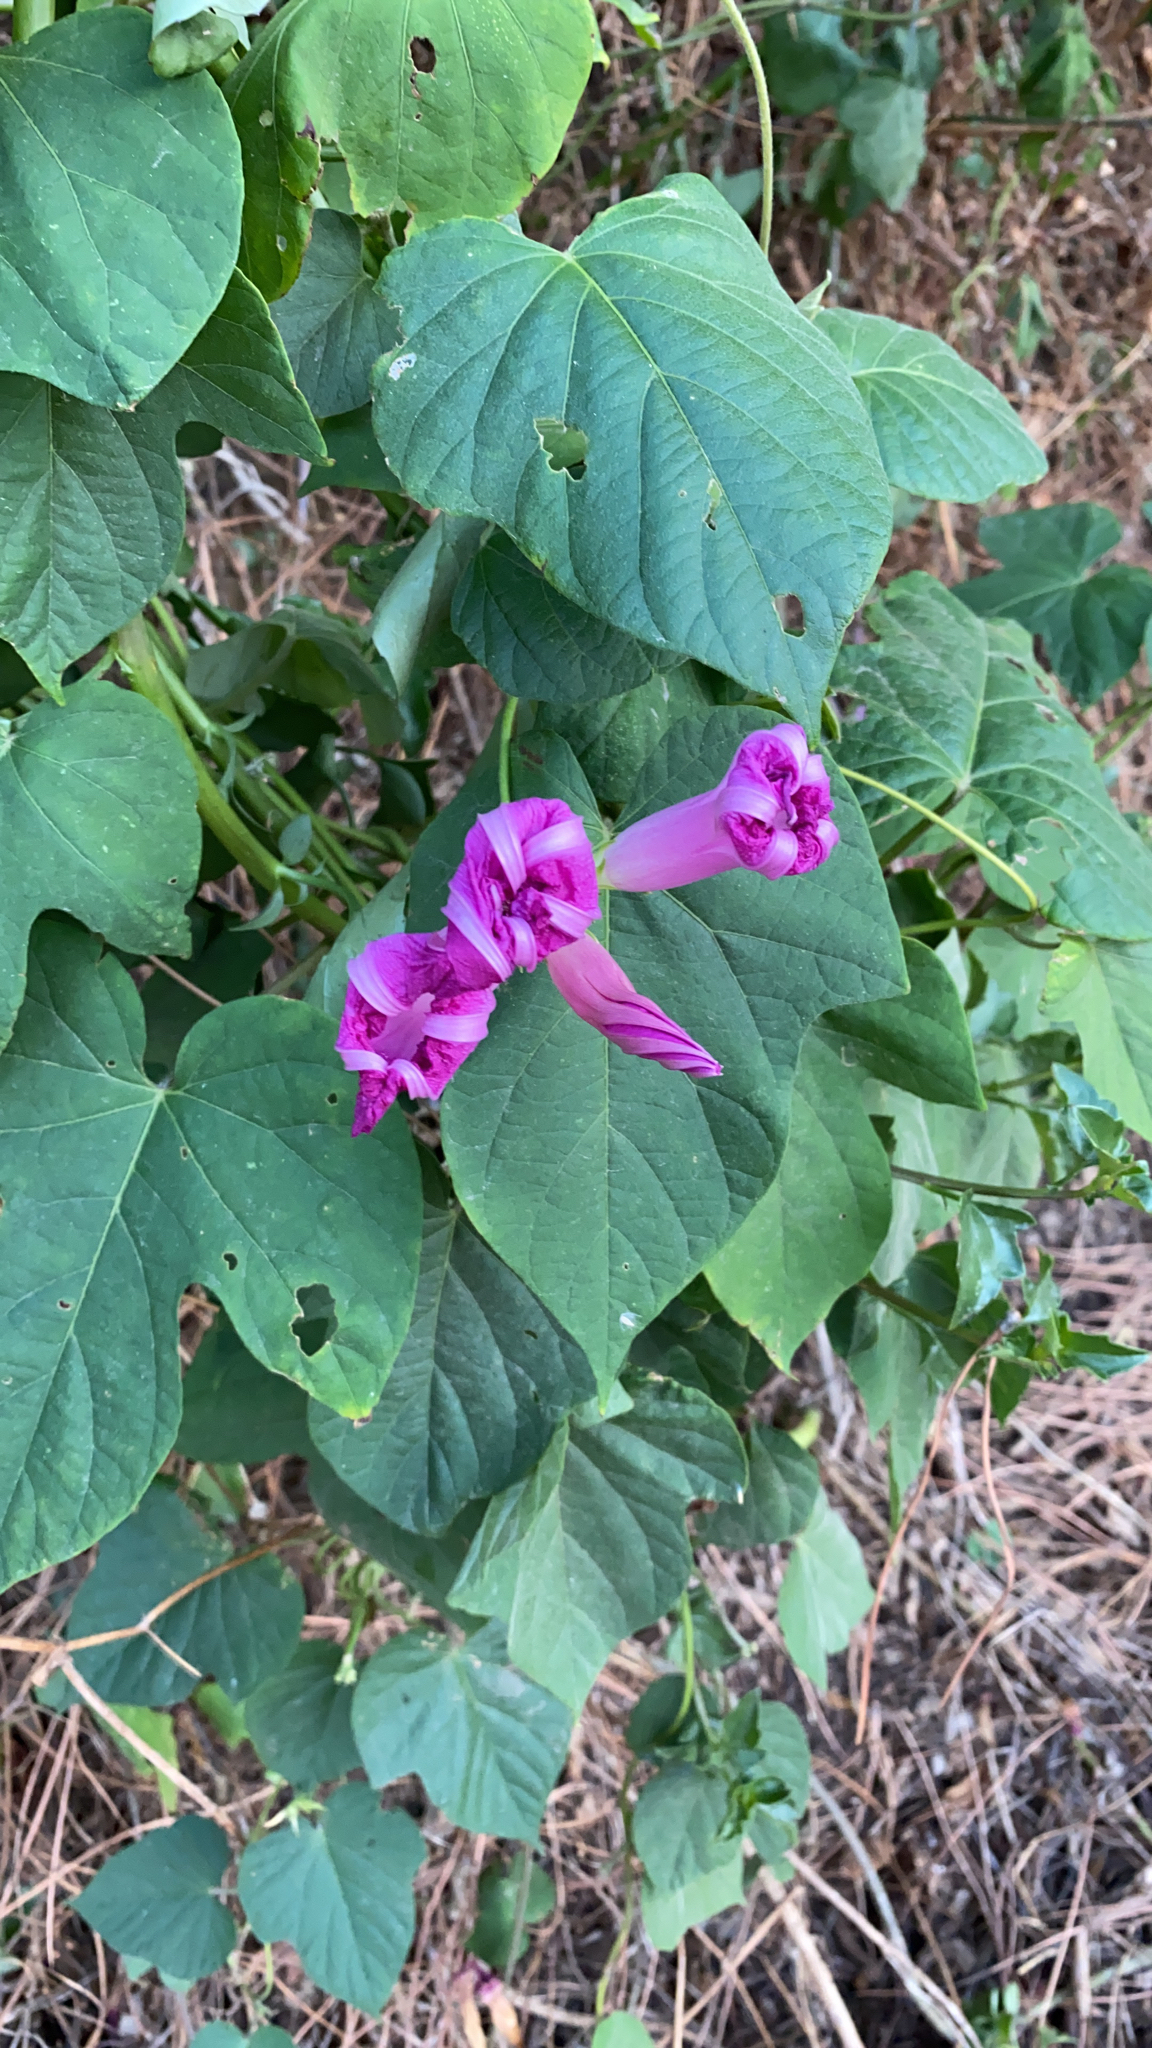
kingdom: Plantae
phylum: Tracheophyta
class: Magnoliopsida
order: Solanales
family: Convolvulaceae
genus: Ipomoea
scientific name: Ipomoea indica
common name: Blue dawnflower
